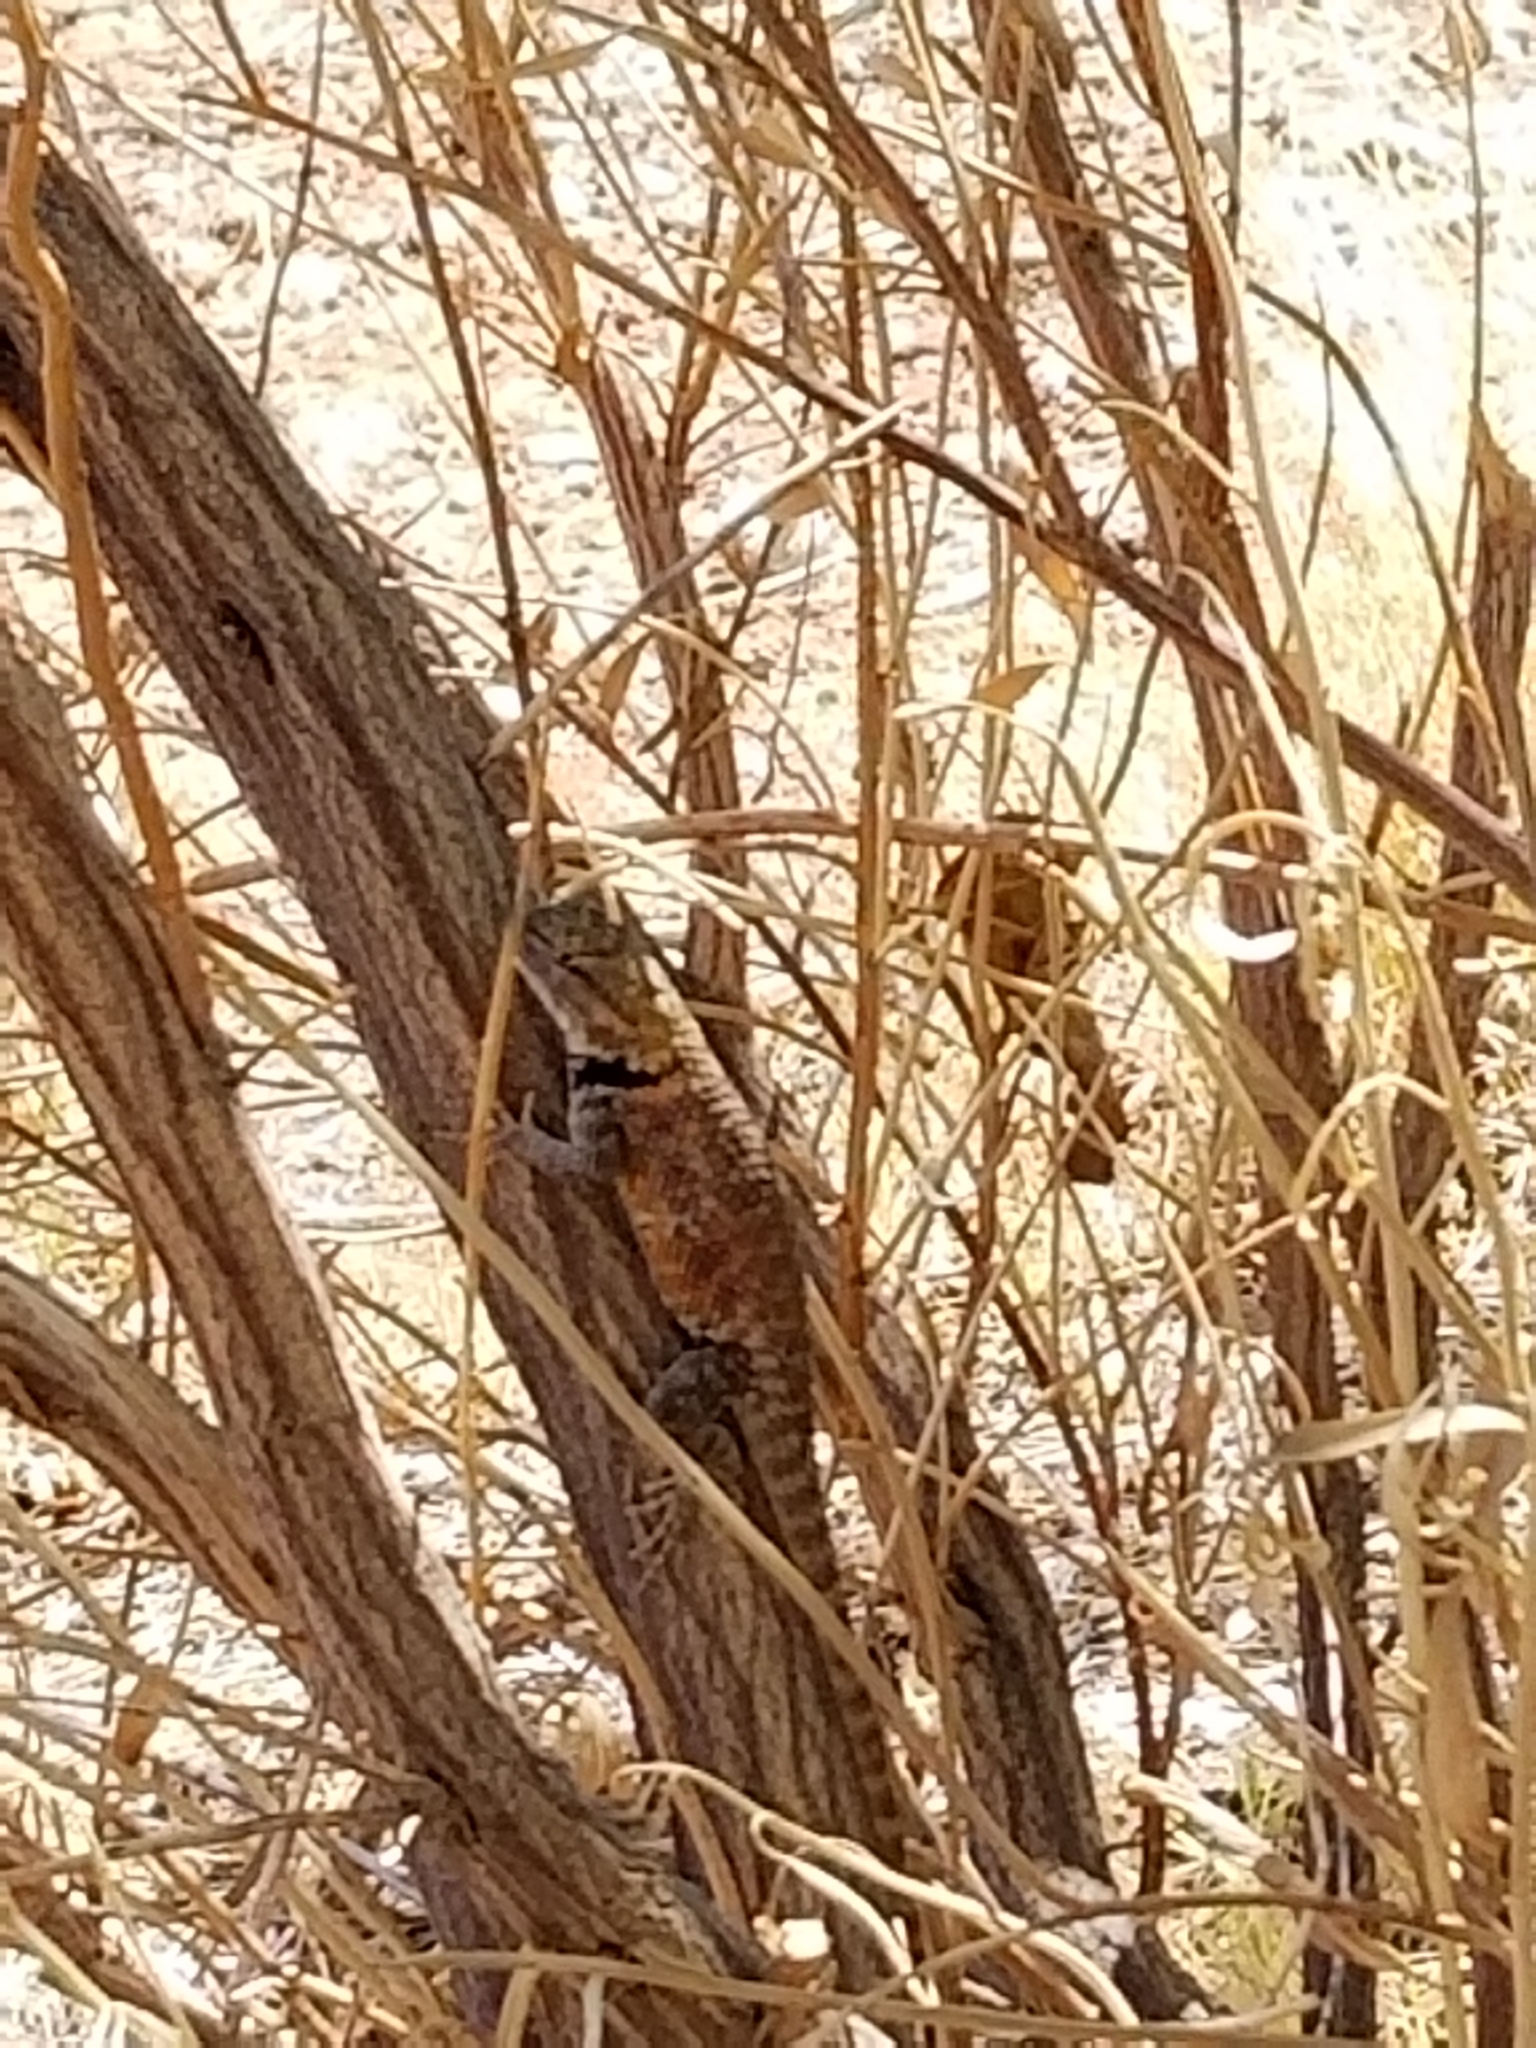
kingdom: Animalia
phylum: Chordata
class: Squamata
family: Phrynosomatidae
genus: Sceloporus
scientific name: Sceloporus magister
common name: Desert spiny lizard
